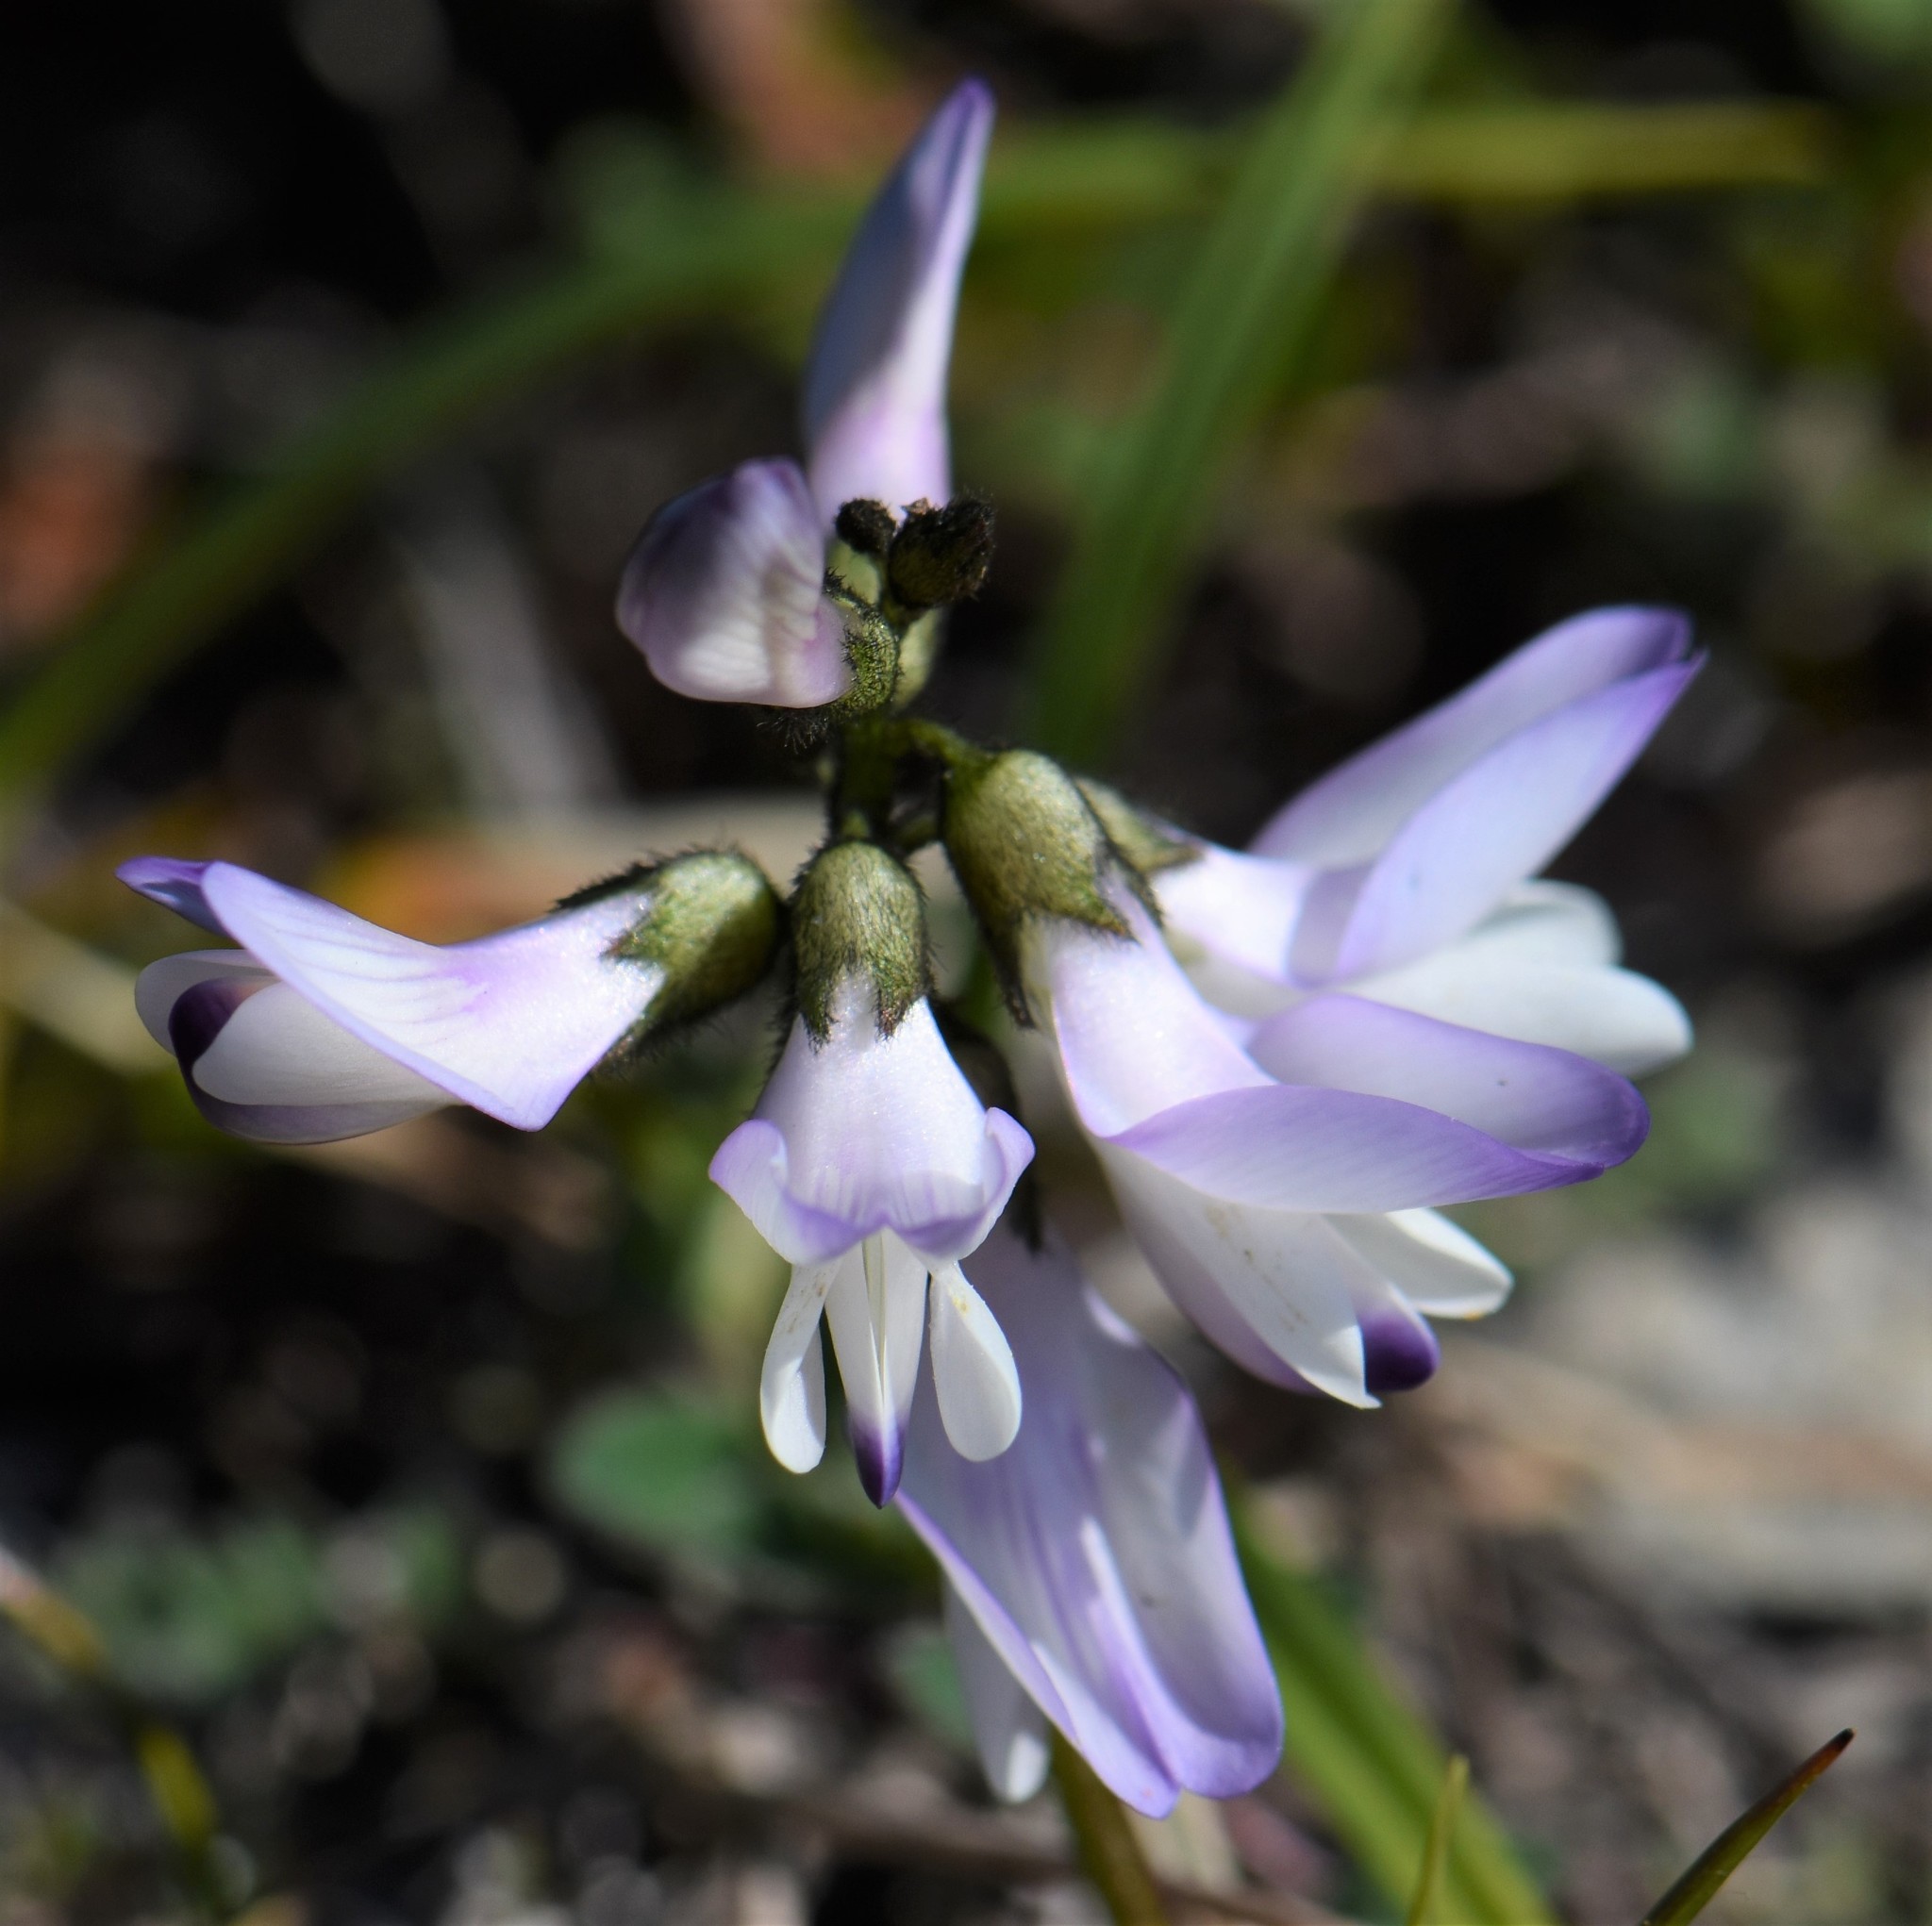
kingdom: Plantae
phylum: Tracheophyta
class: Magnoliopsida
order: Fabales
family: Fabaceae
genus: Astragalus
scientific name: Astragalus alpinus
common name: Alpine milk-vetch
